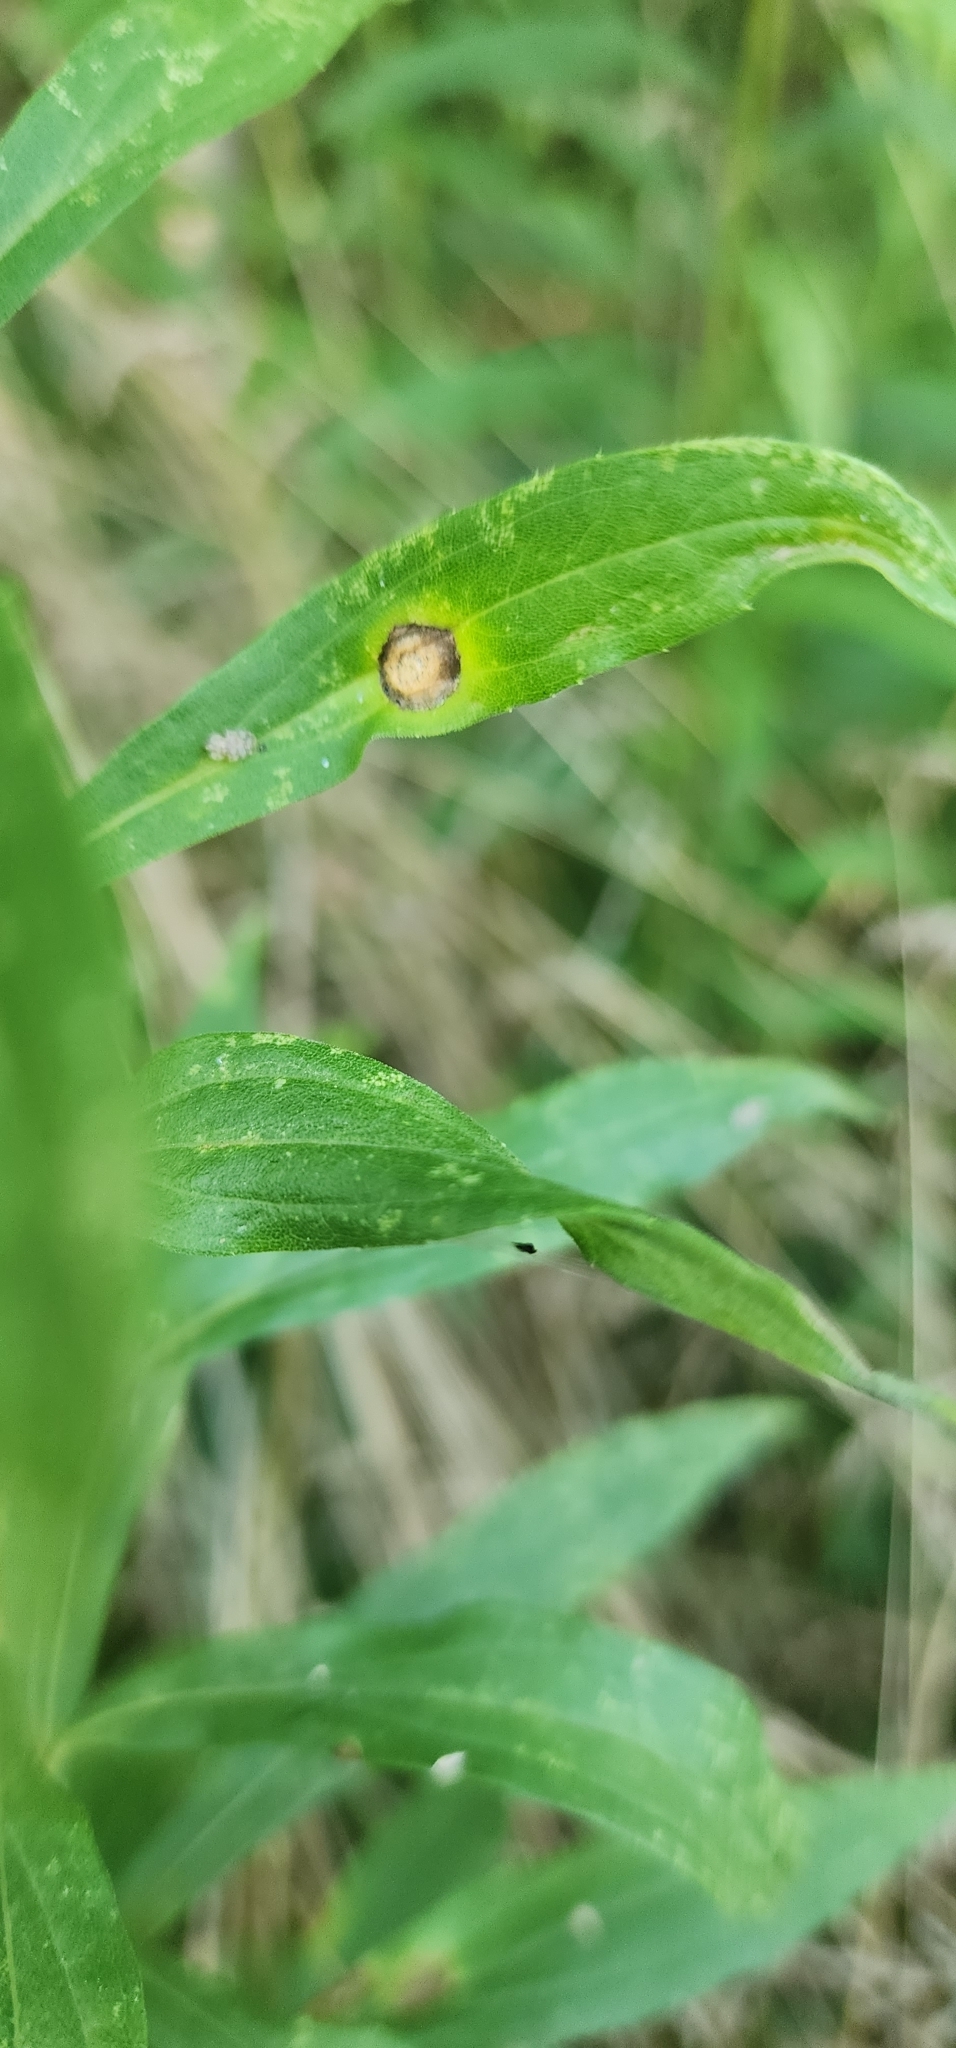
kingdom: Animalia
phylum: Arthropoda
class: Insecta
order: Diptera
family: Cecidomyiidae
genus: Asteromyia
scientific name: Asteromyia carbonifera
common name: Carbonifera goldenrod gall midge
